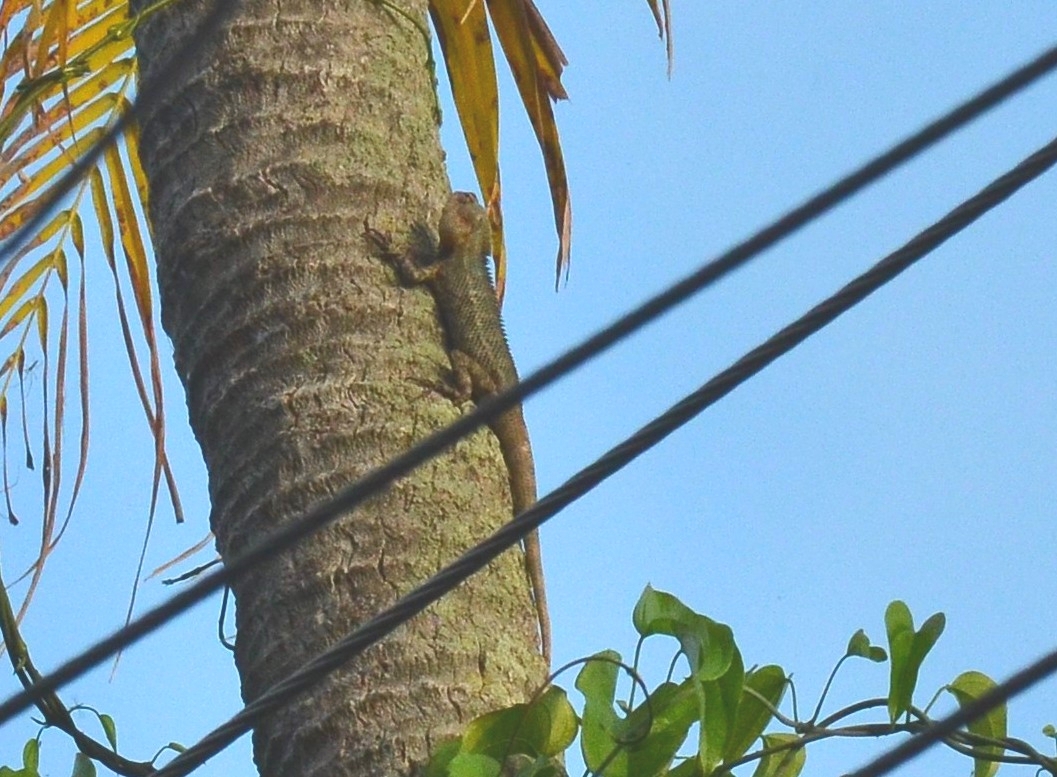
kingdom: Animalia
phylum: Chordata
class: Squamata
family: Agamidae
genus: Calotes
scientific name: Calotes versicolor
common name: Oriental garden lizard
